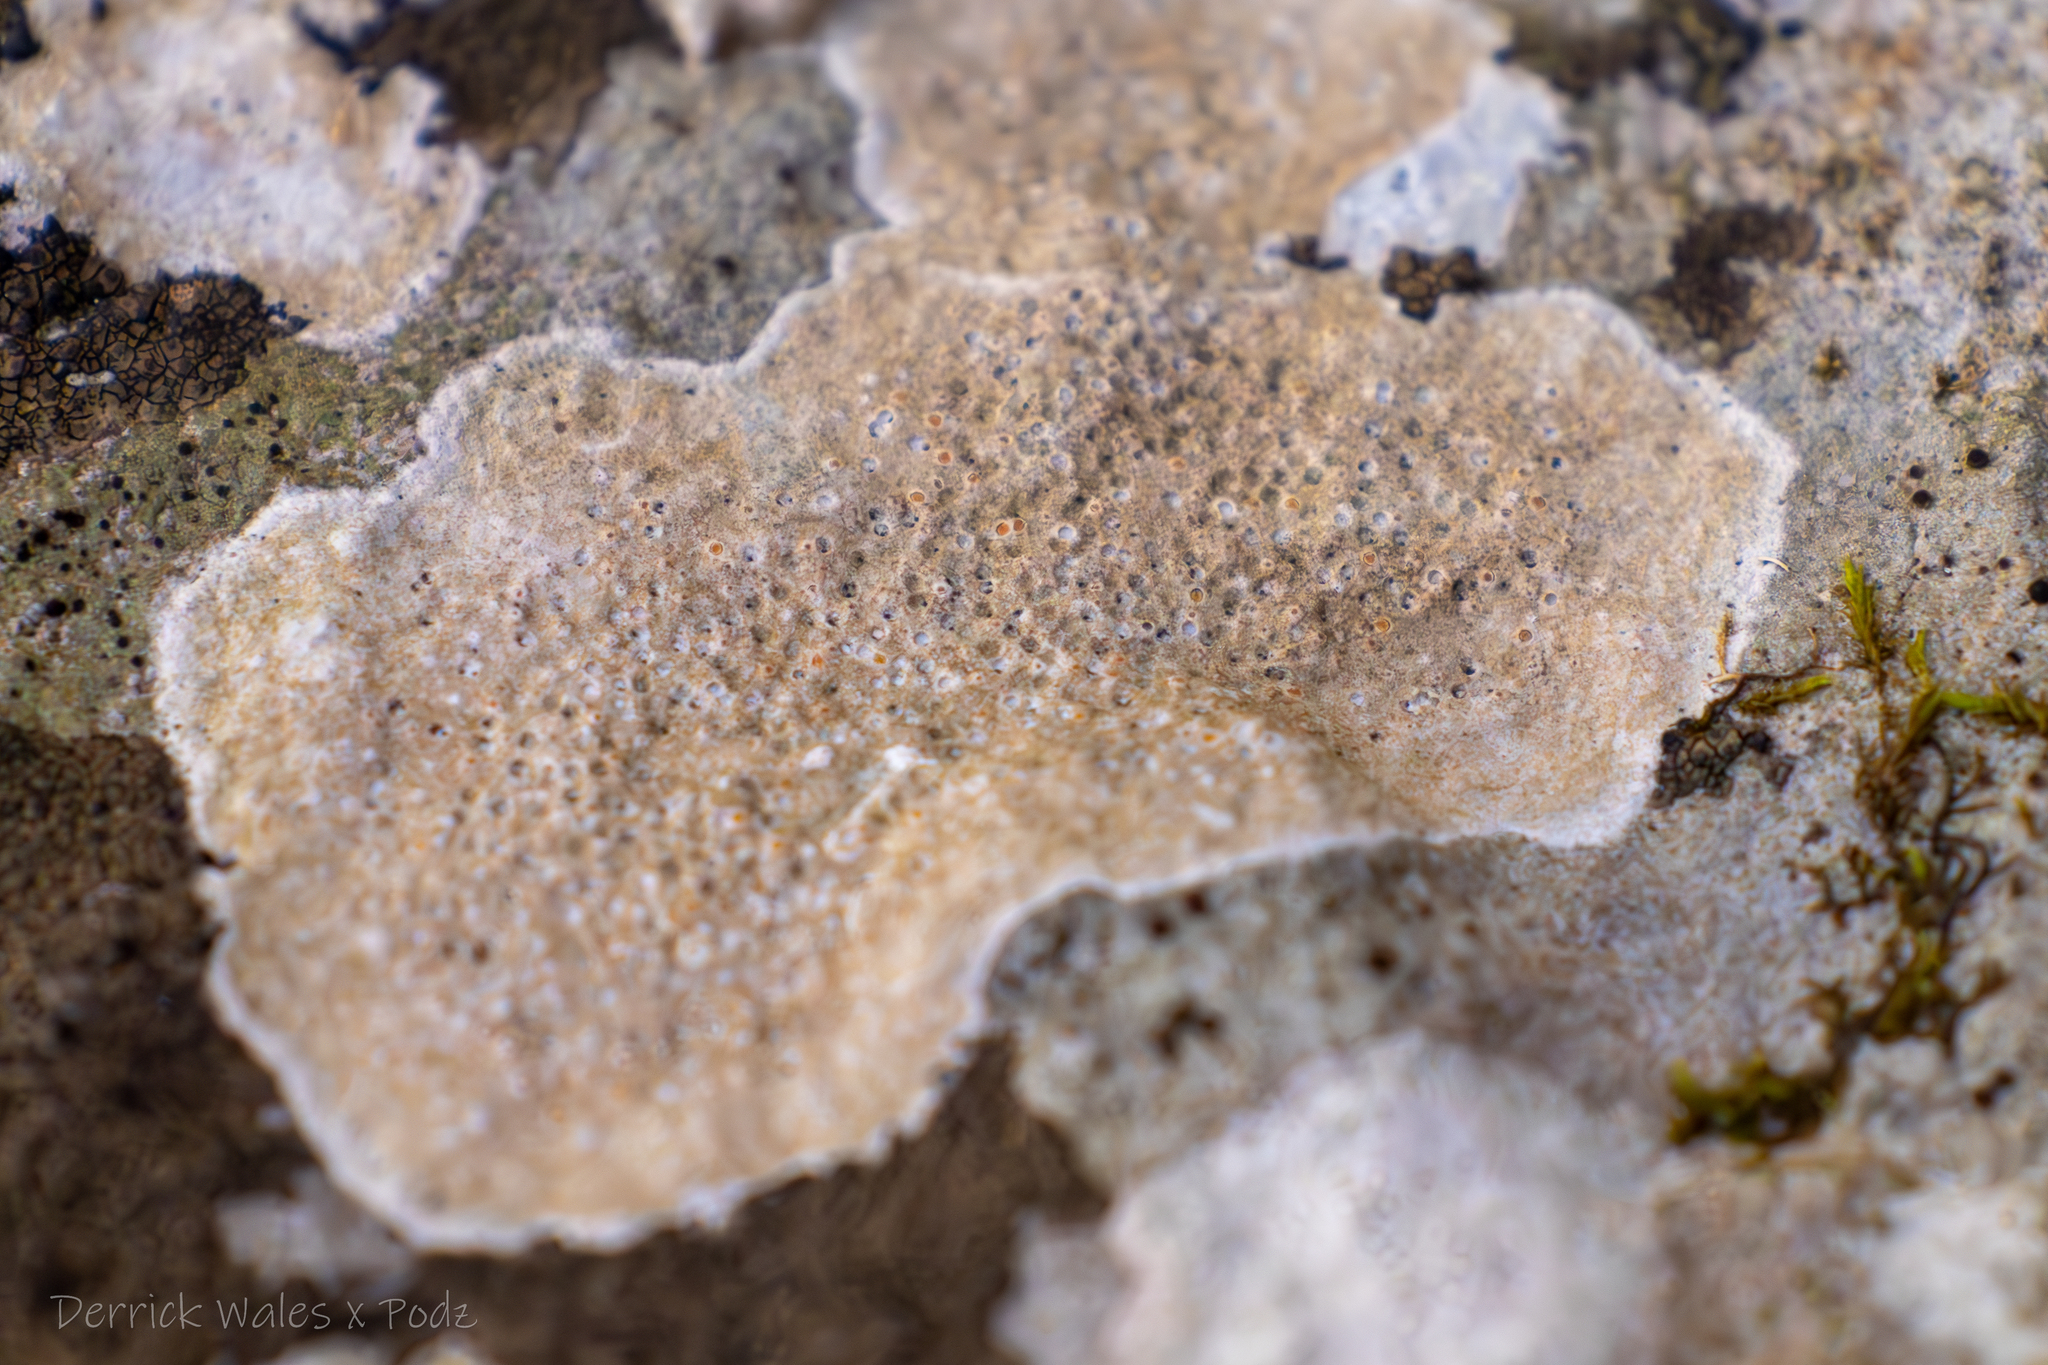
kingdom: Fungi
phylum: Ascomycota
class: Lecanoromycetes
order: Ostropales
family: Stictidaceae
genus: Petractis
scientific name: Petractis farlowii
